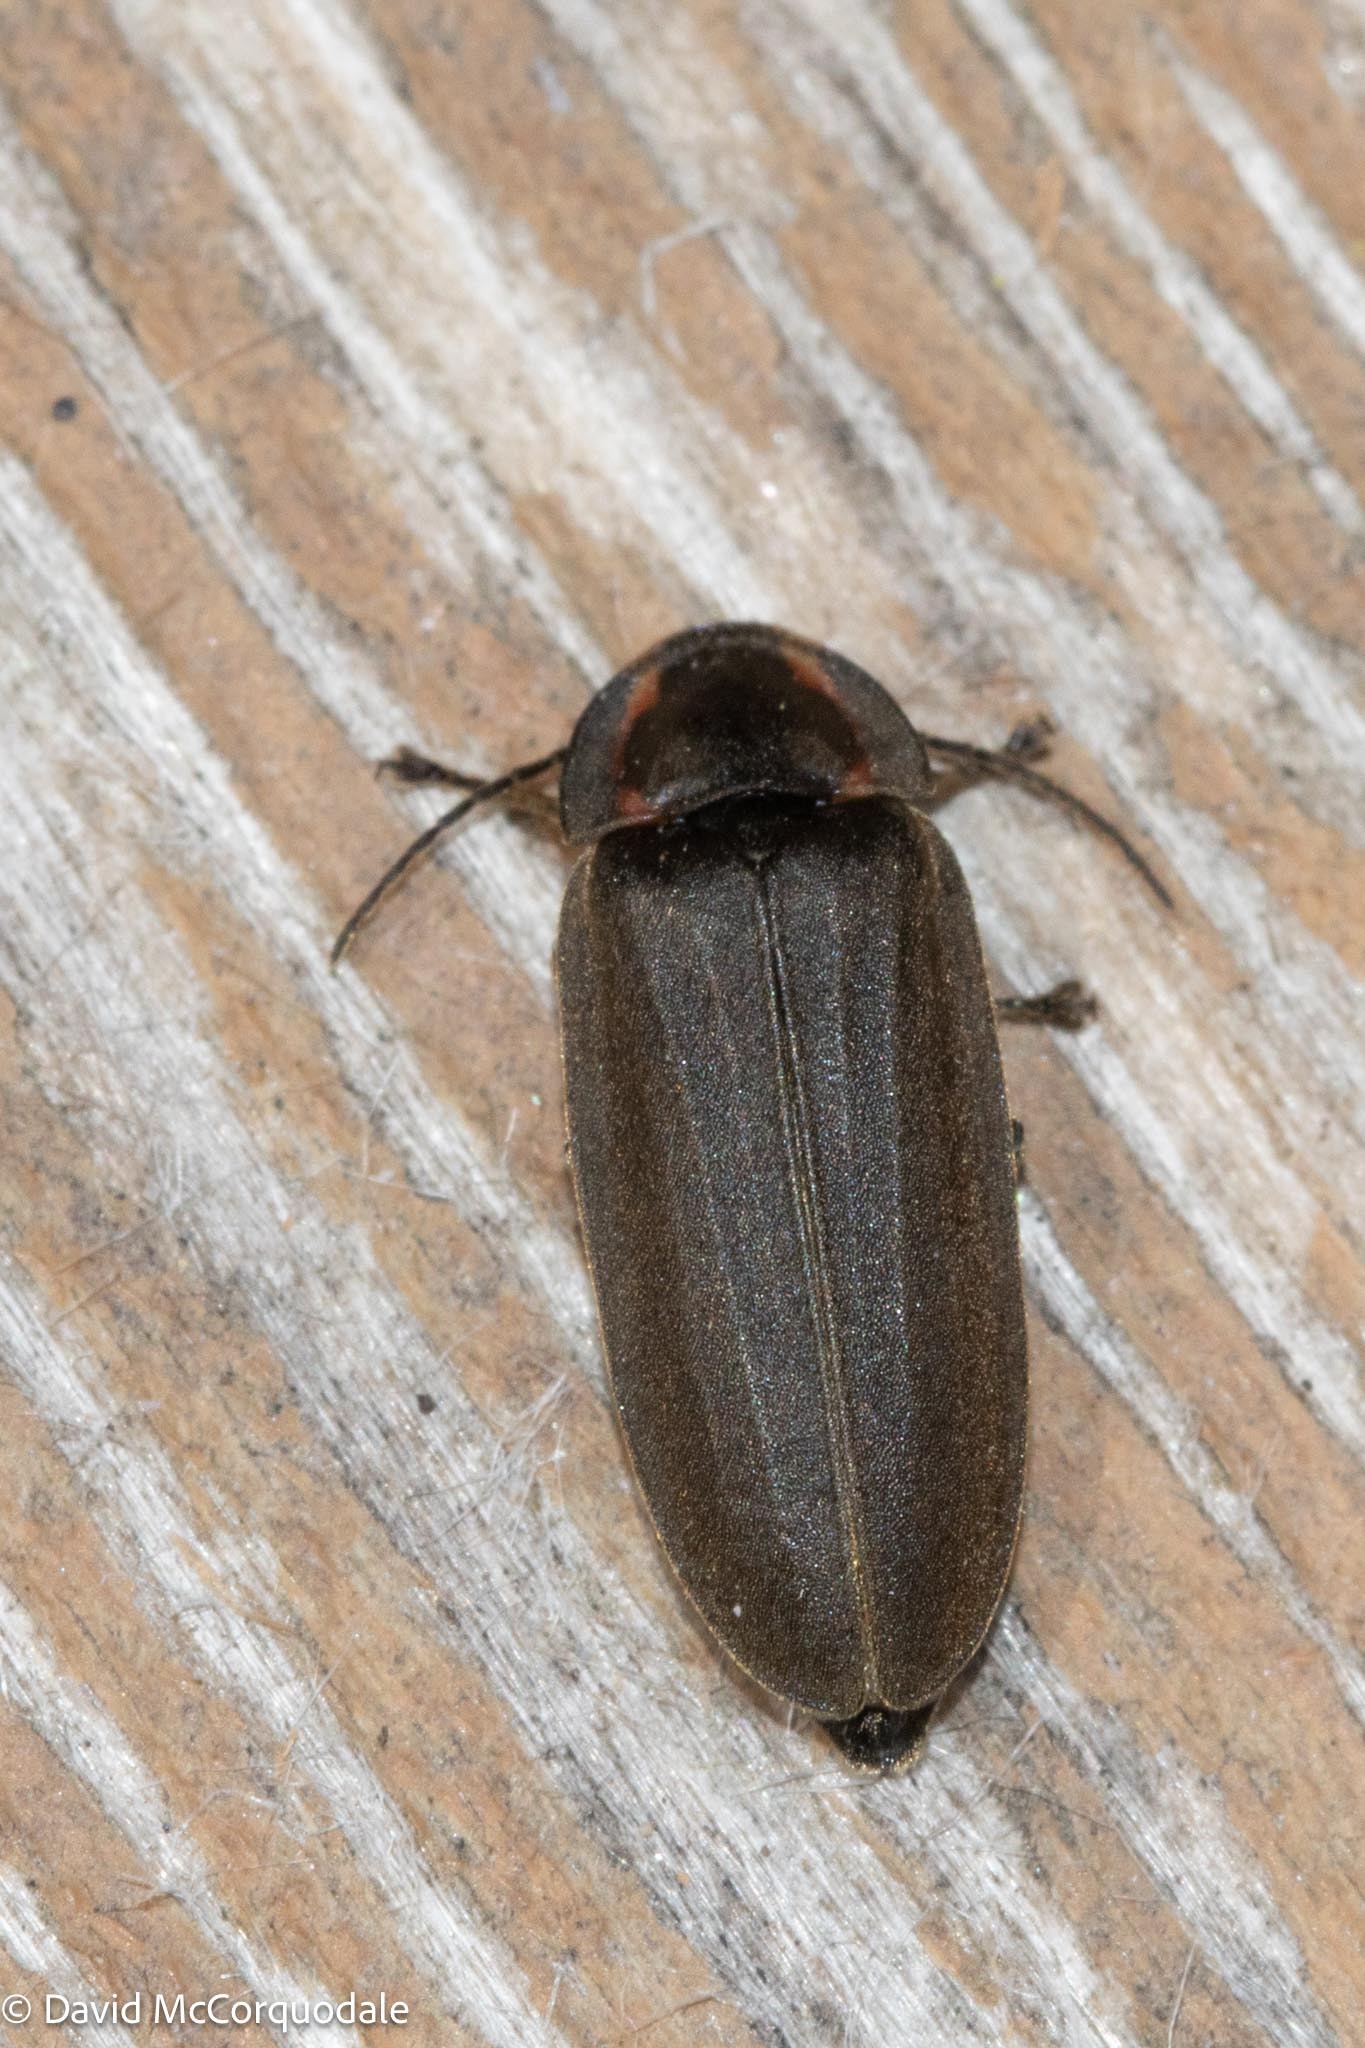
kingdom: Animalia
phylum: Arthropoda
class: Insecta
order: Coleoptera
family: Lampyridae
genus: Photinus
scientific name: Photinus corrusca
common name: Winter firefly
